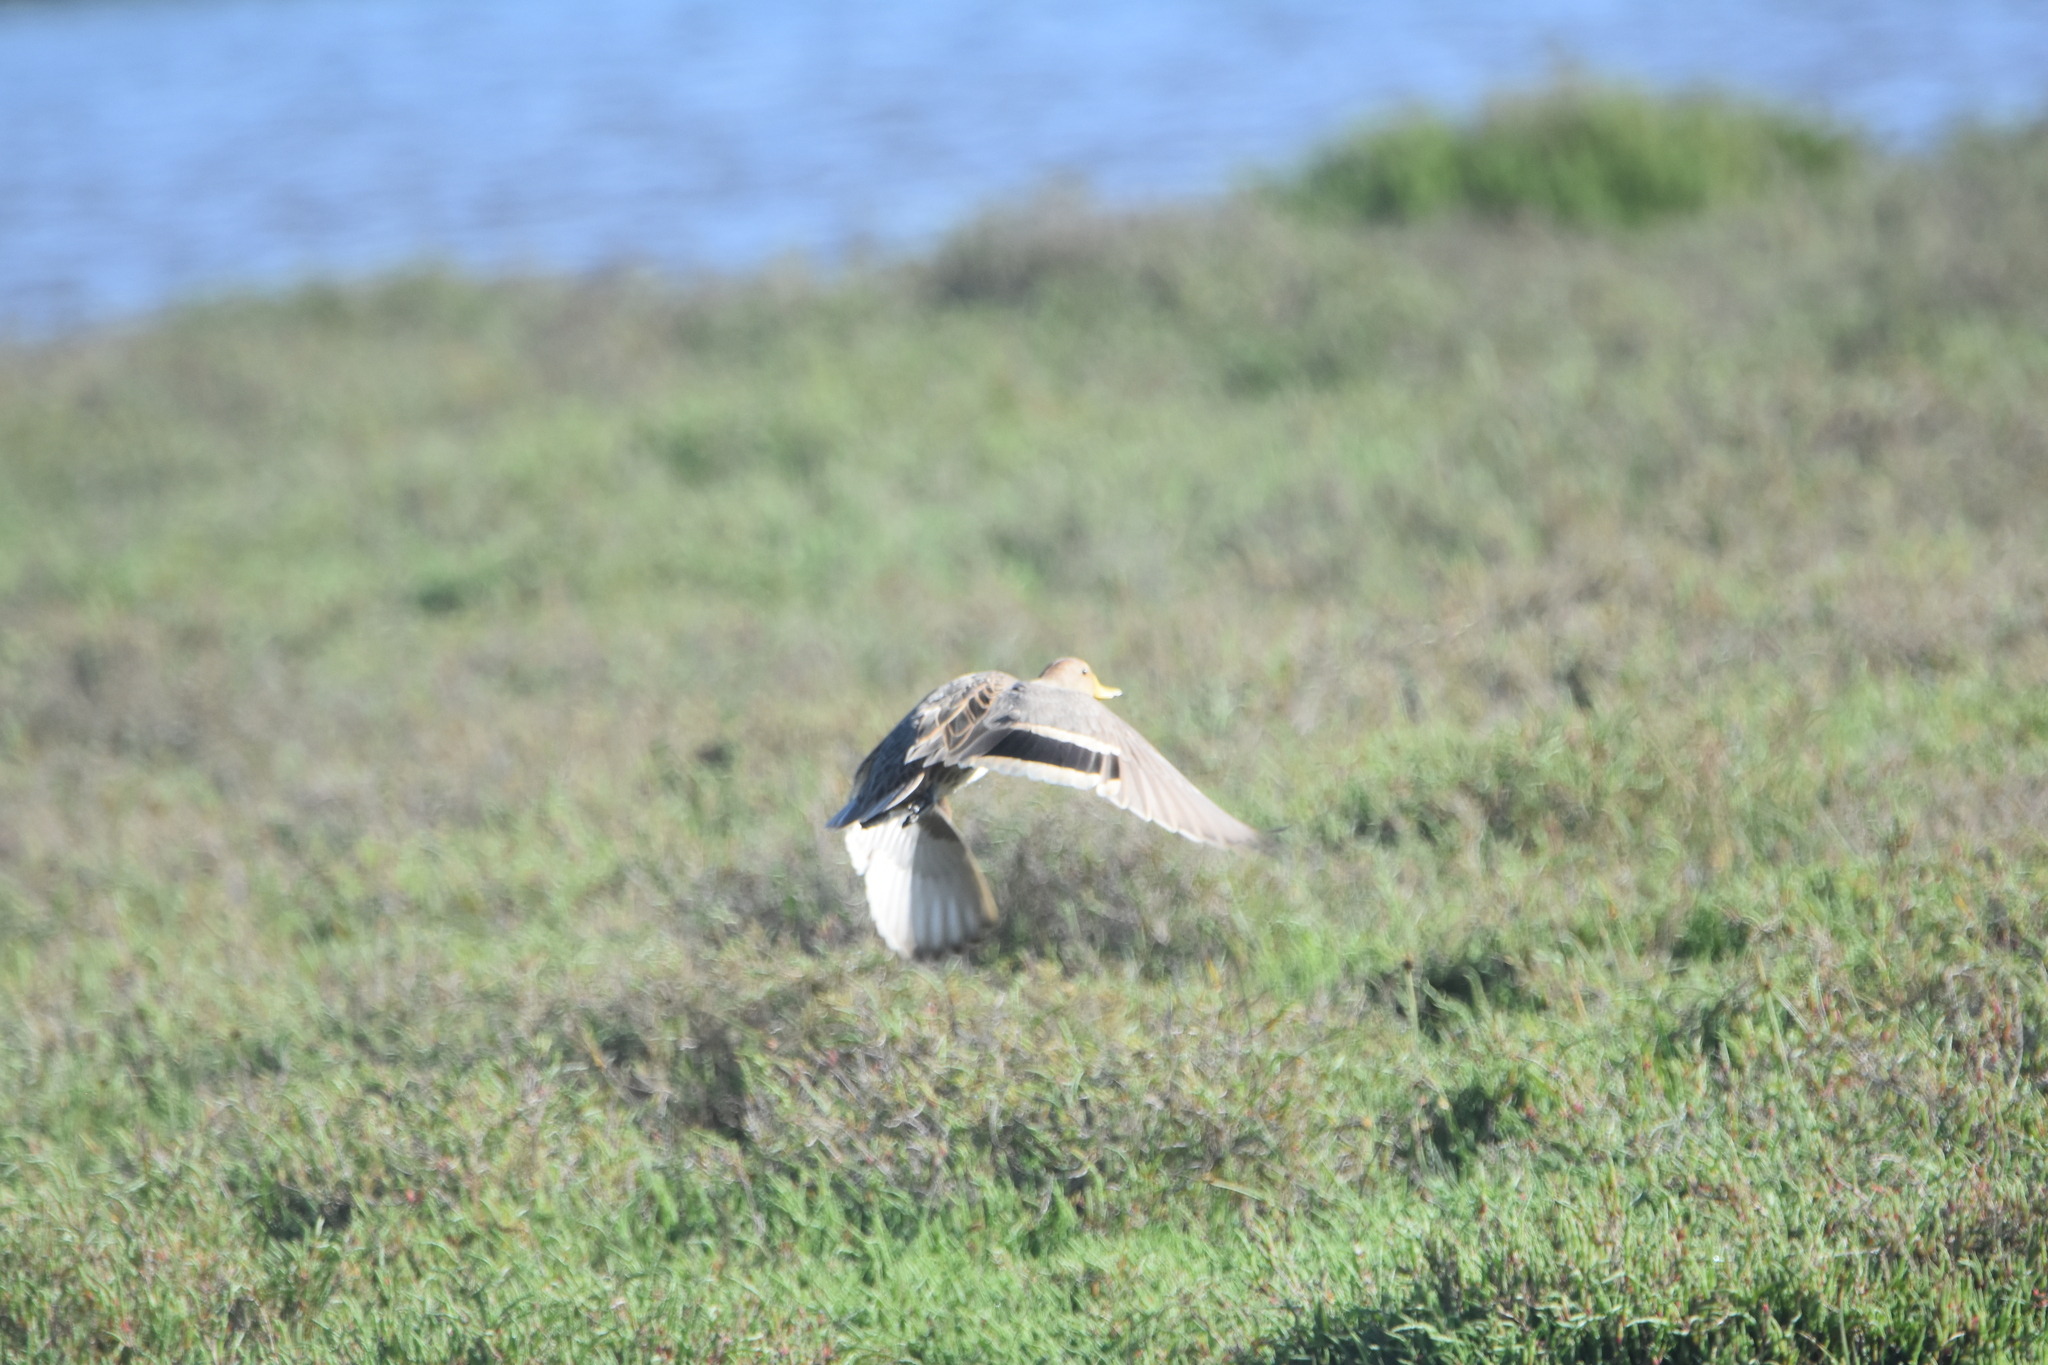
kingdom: Animalia
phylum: Chordata
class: Aves
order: Anseriformes
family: Anatidae
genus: Anas
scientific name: Anas georgica
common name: Yellow-billed pintail
